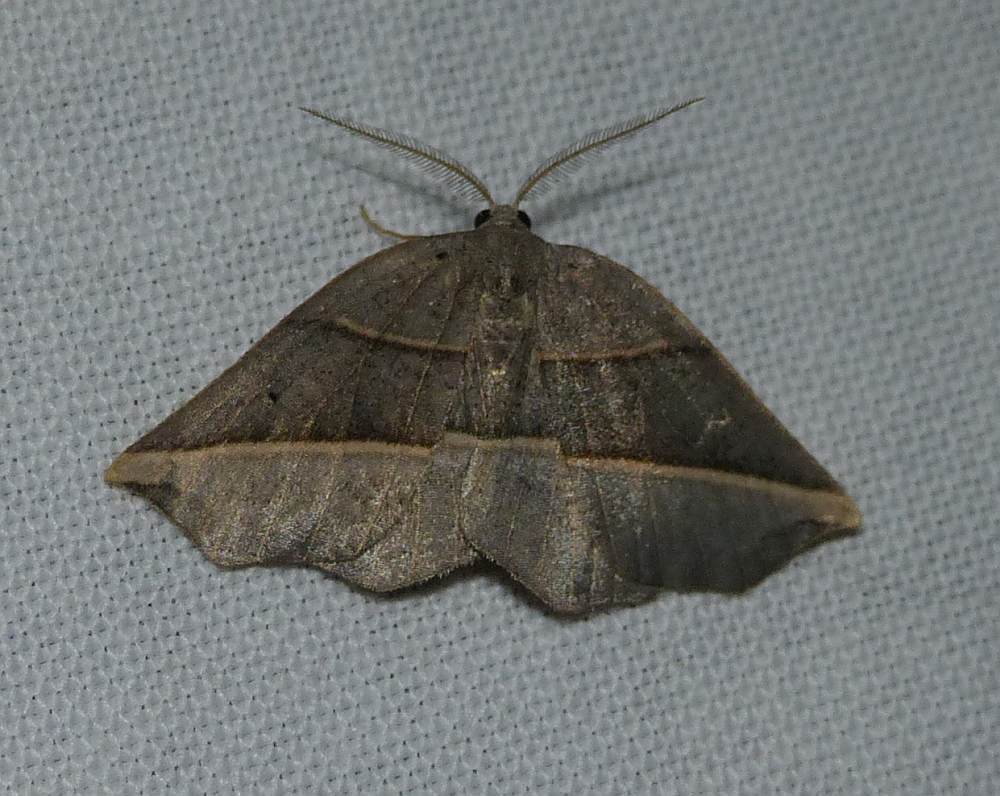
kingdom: Animalia
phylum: Arthropoda
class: Insecta
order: Lepidoptera
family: Geometridae
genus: Metanema
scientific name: Metanema determinata
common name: Dark metanema
